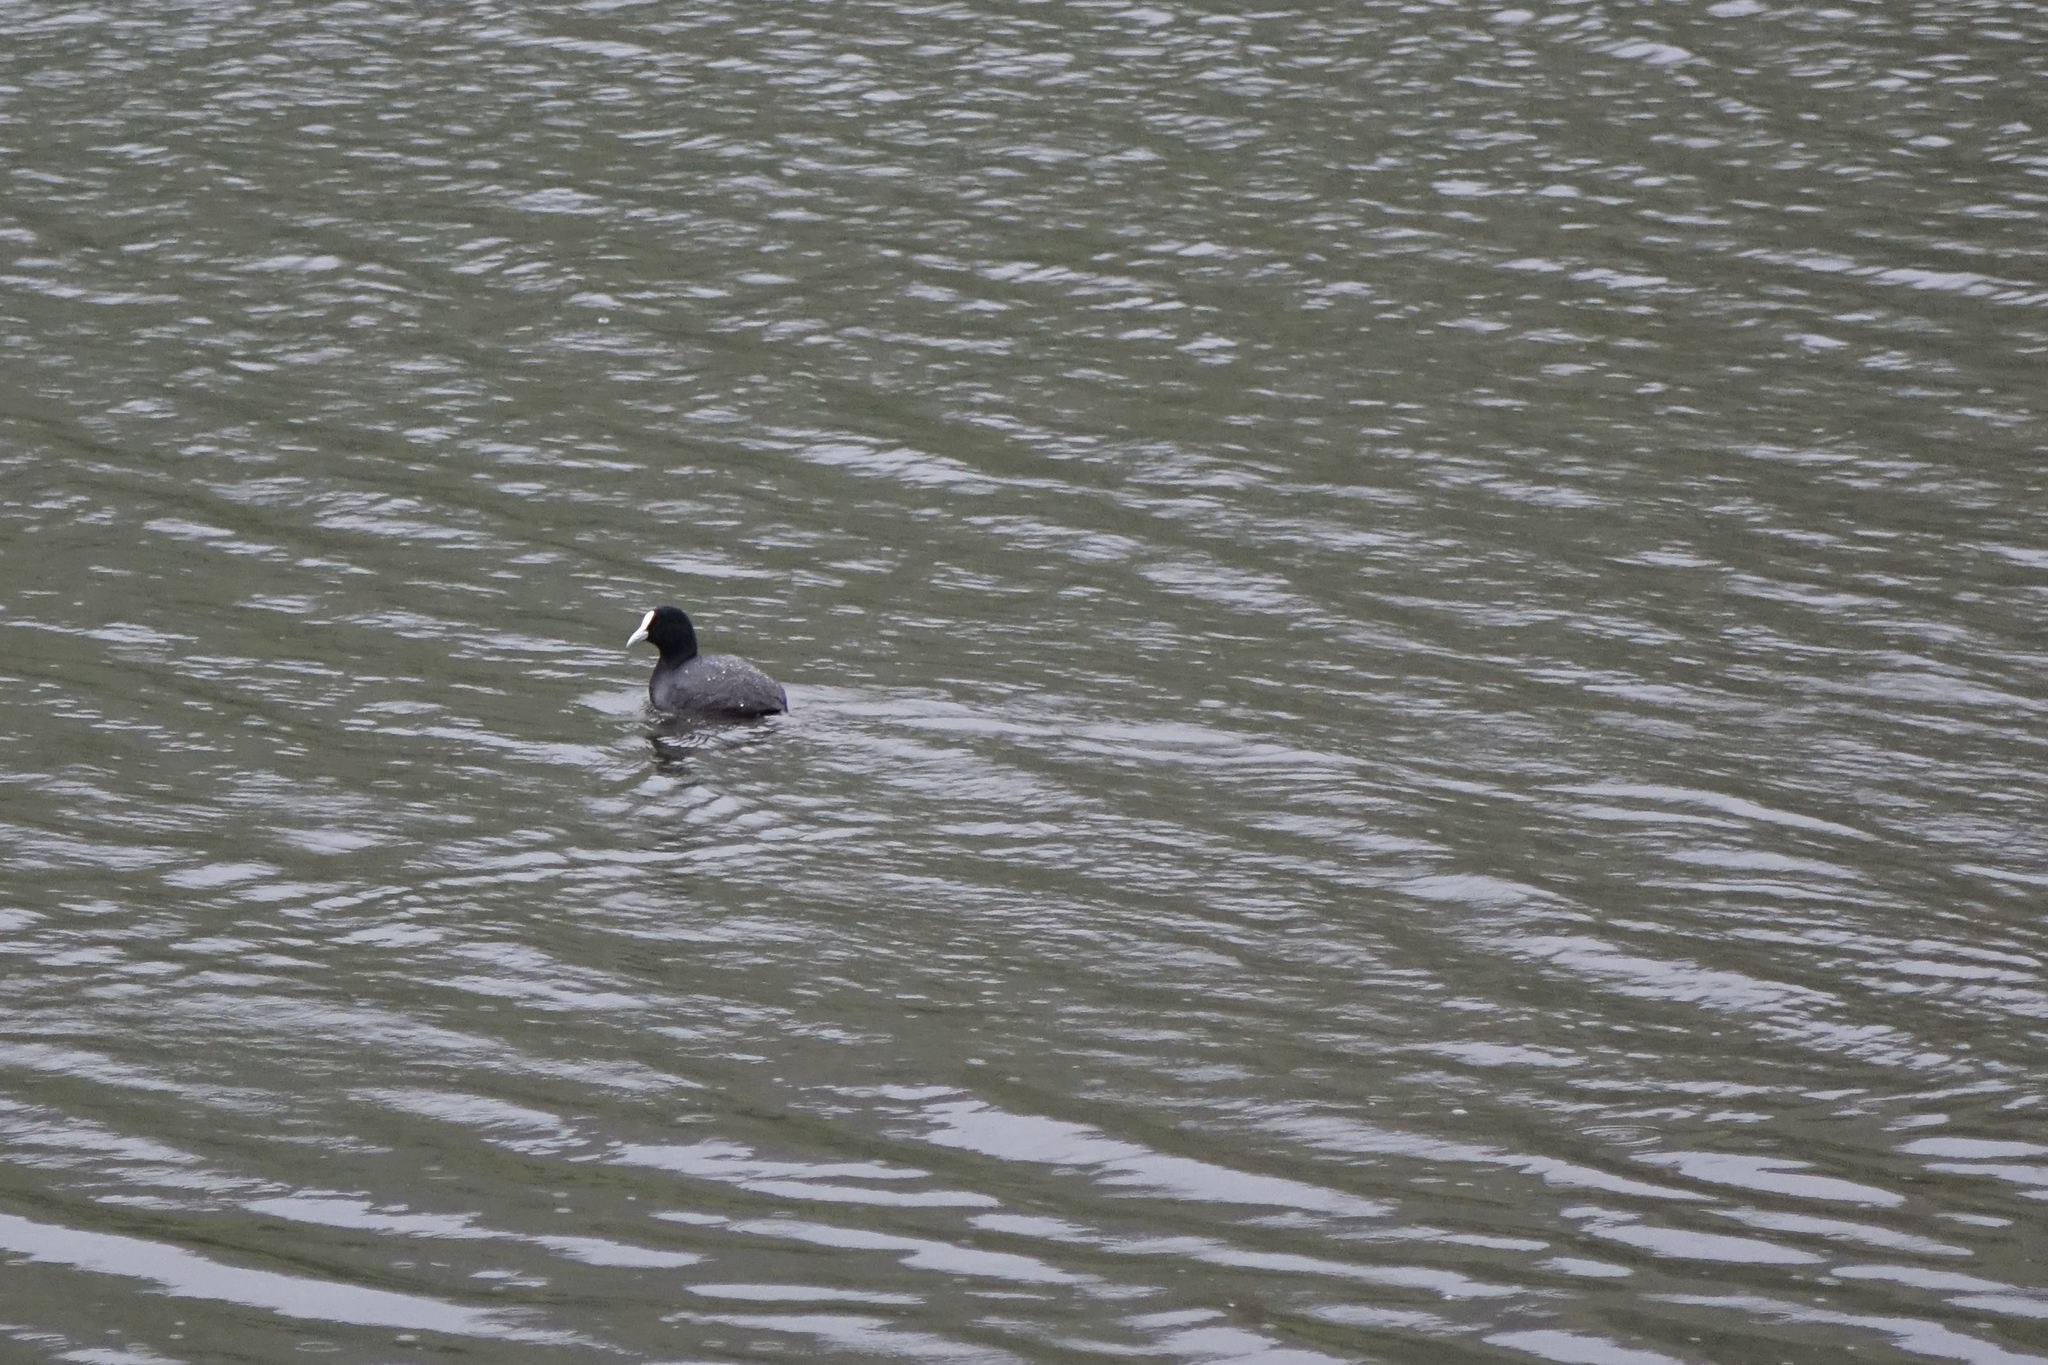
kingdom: Animalia
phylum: Chordata
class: Aves
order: Gruiformes
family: Rallidae
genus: Fulica
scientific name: Fulica atra
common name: Eurasian coot
